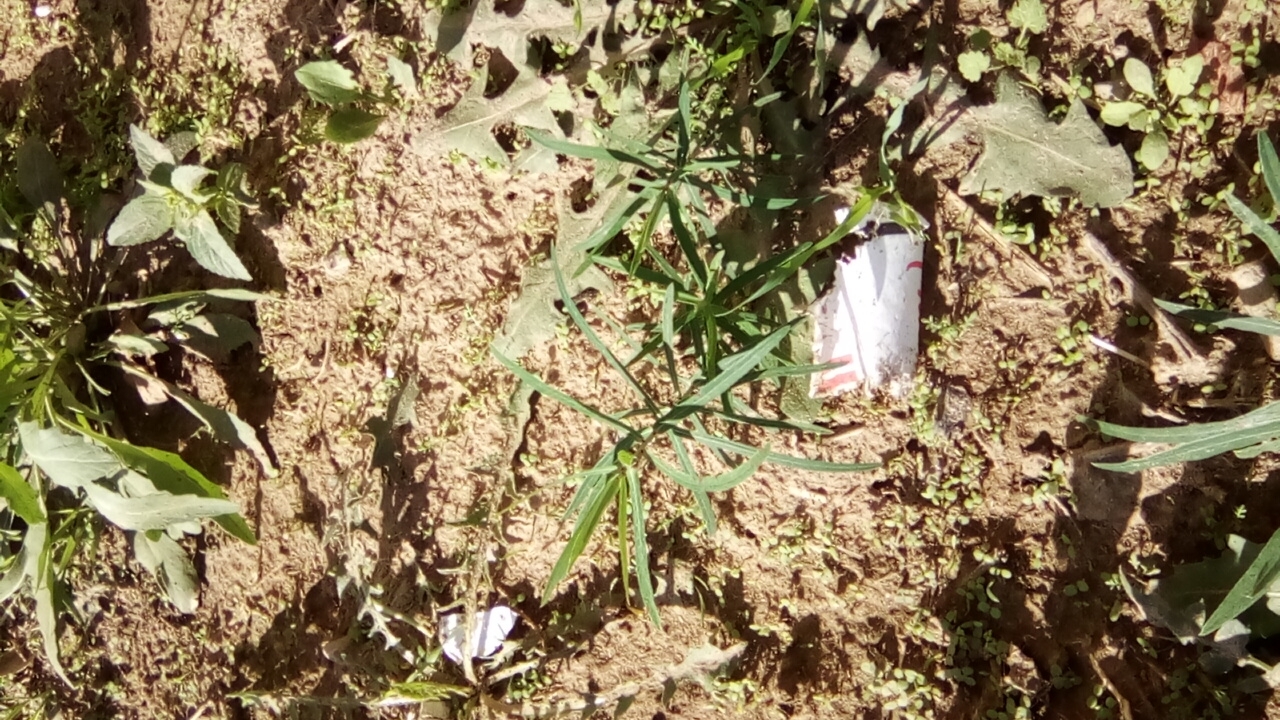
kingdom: Plantae
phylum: Tracheophyta
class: Magnoliopsida
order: Malpighiales
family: Euphorbiaceae
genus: Euphorbia
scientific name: Euphorbia virgata
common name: Leafy spurge
